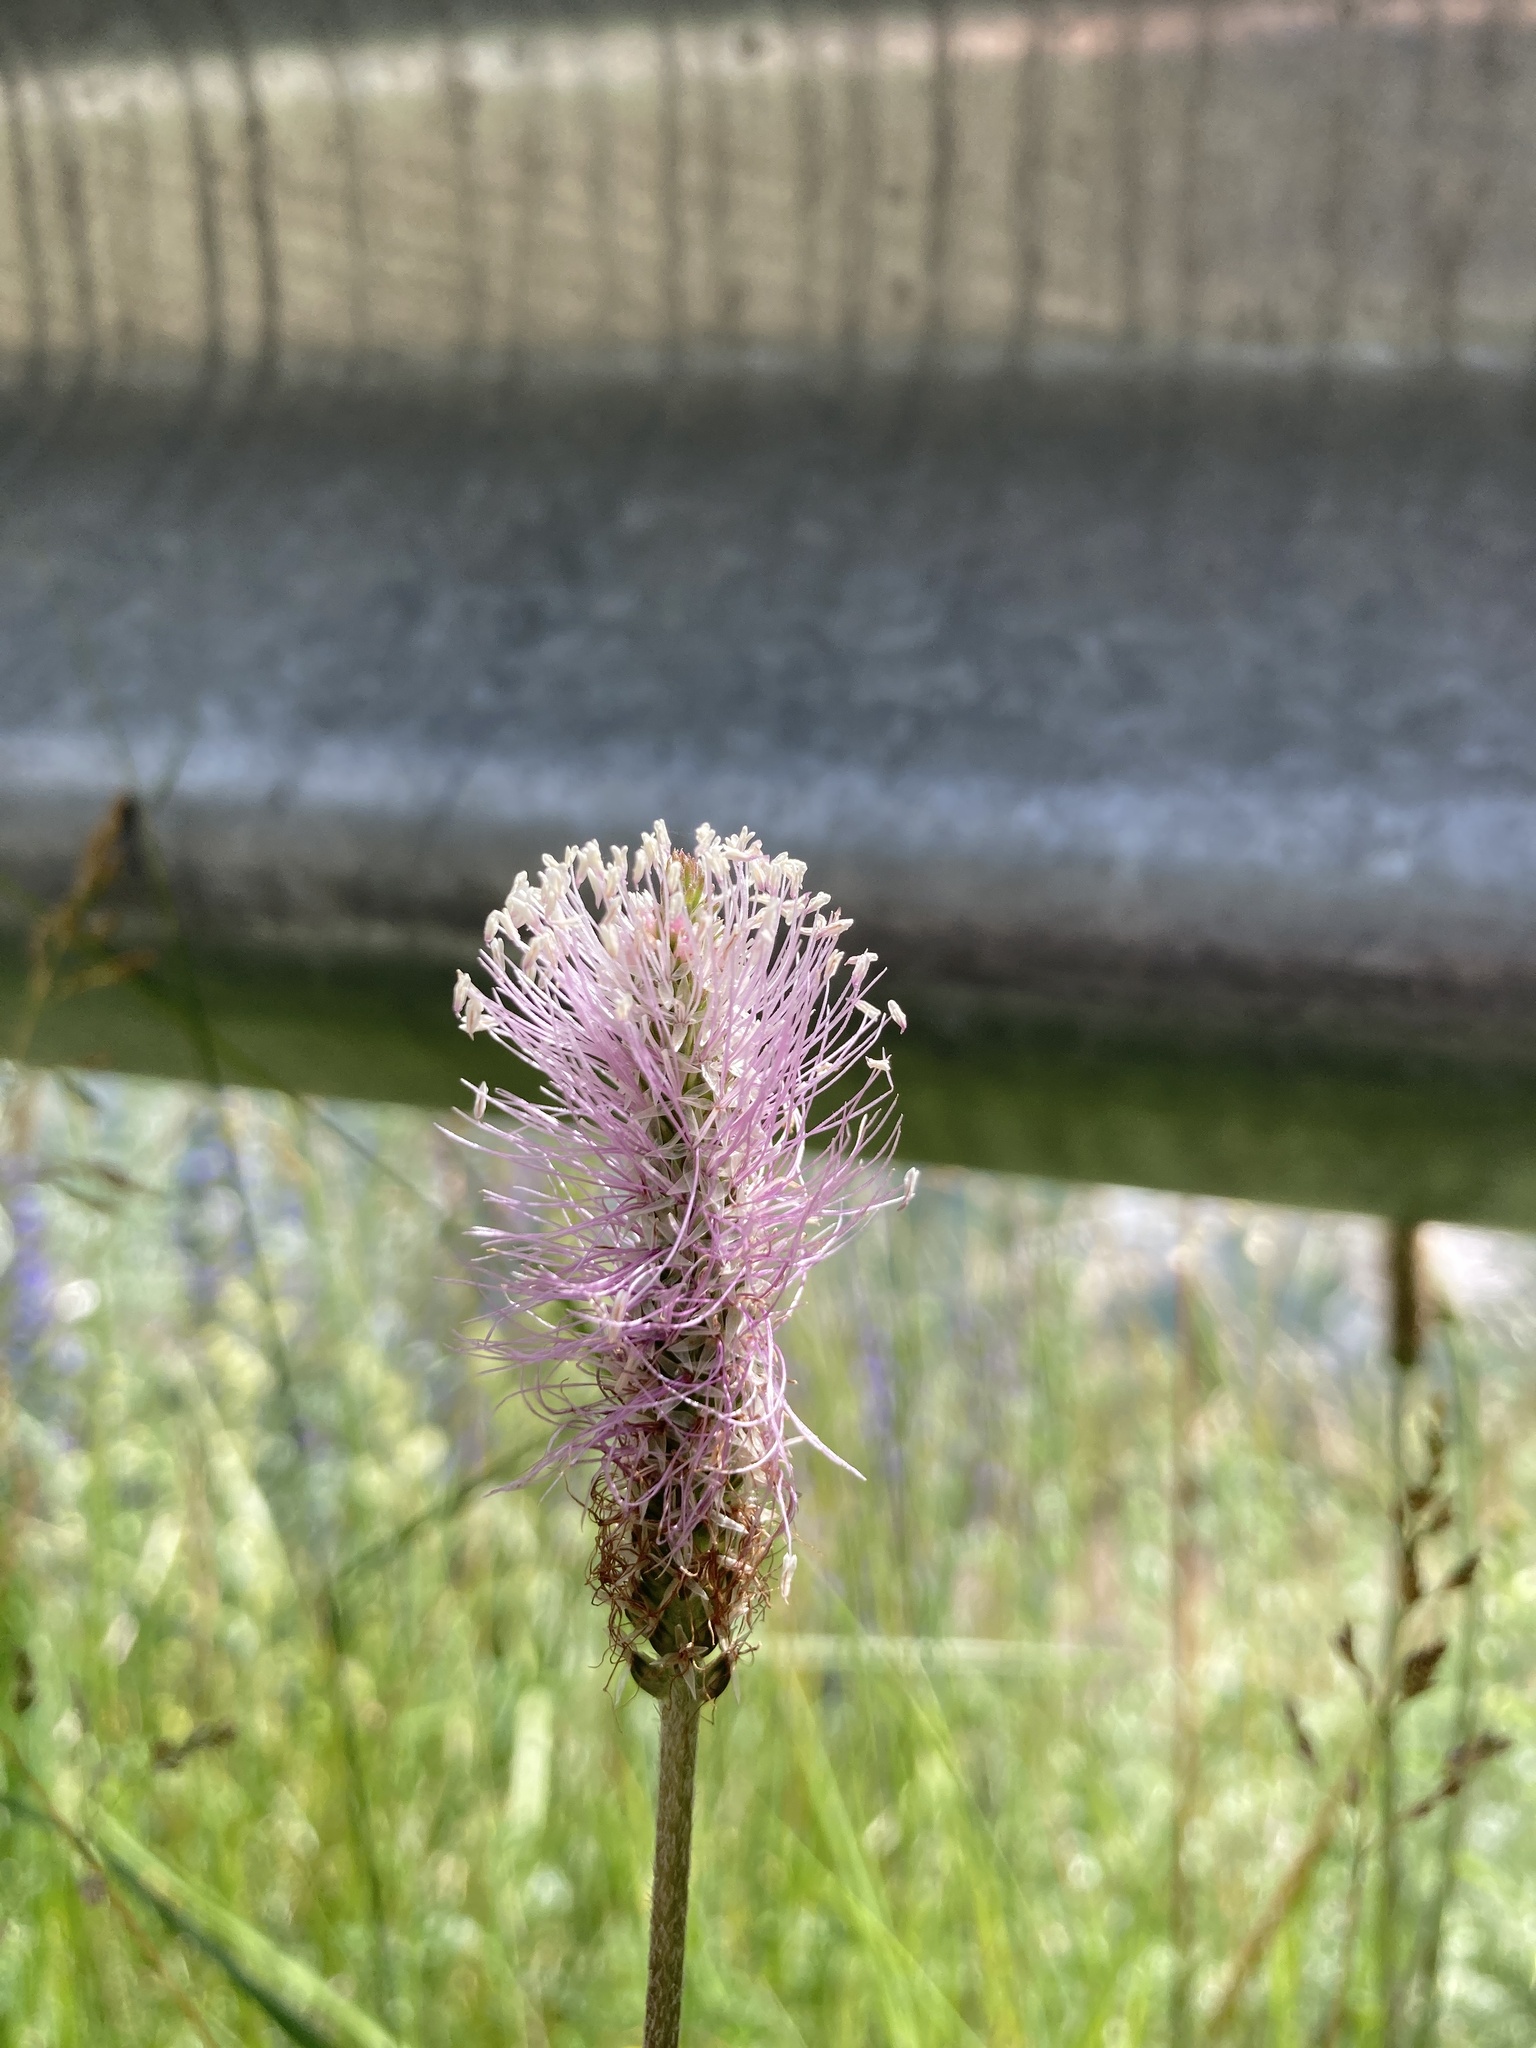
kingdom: Plantae
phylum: Tracheophyta
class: Magnoliopsida
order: Lamiales
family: Plantaginaceae
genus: Plantago
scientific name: Plantago media
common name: Hoary plantain
